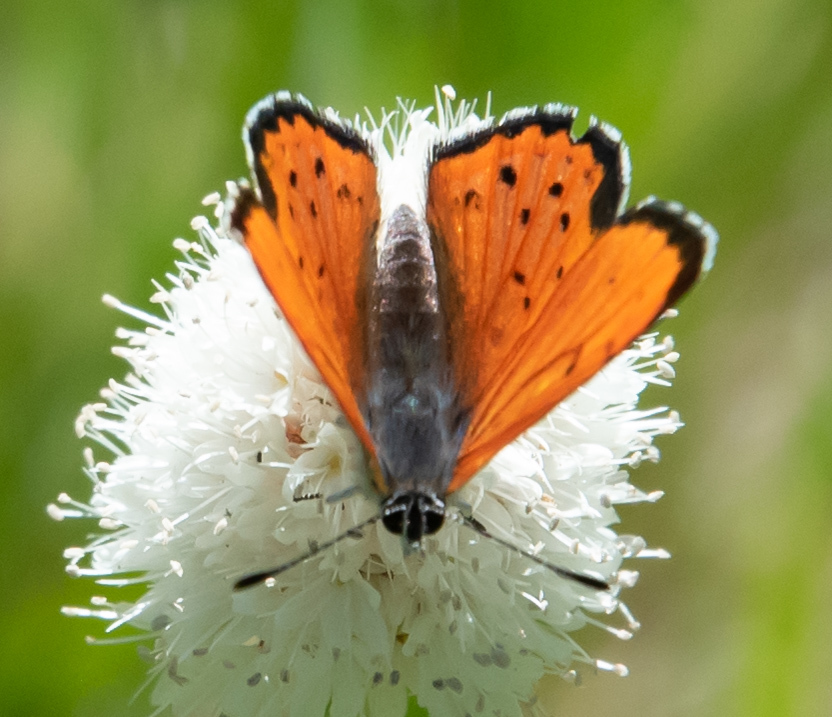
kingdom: Animalia
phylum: Arthropoda
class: Insecta
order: Lepidoptera
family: Lycaenidae
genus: Lycaena
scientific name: Lycaena cupreus
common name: Lustrous copper
